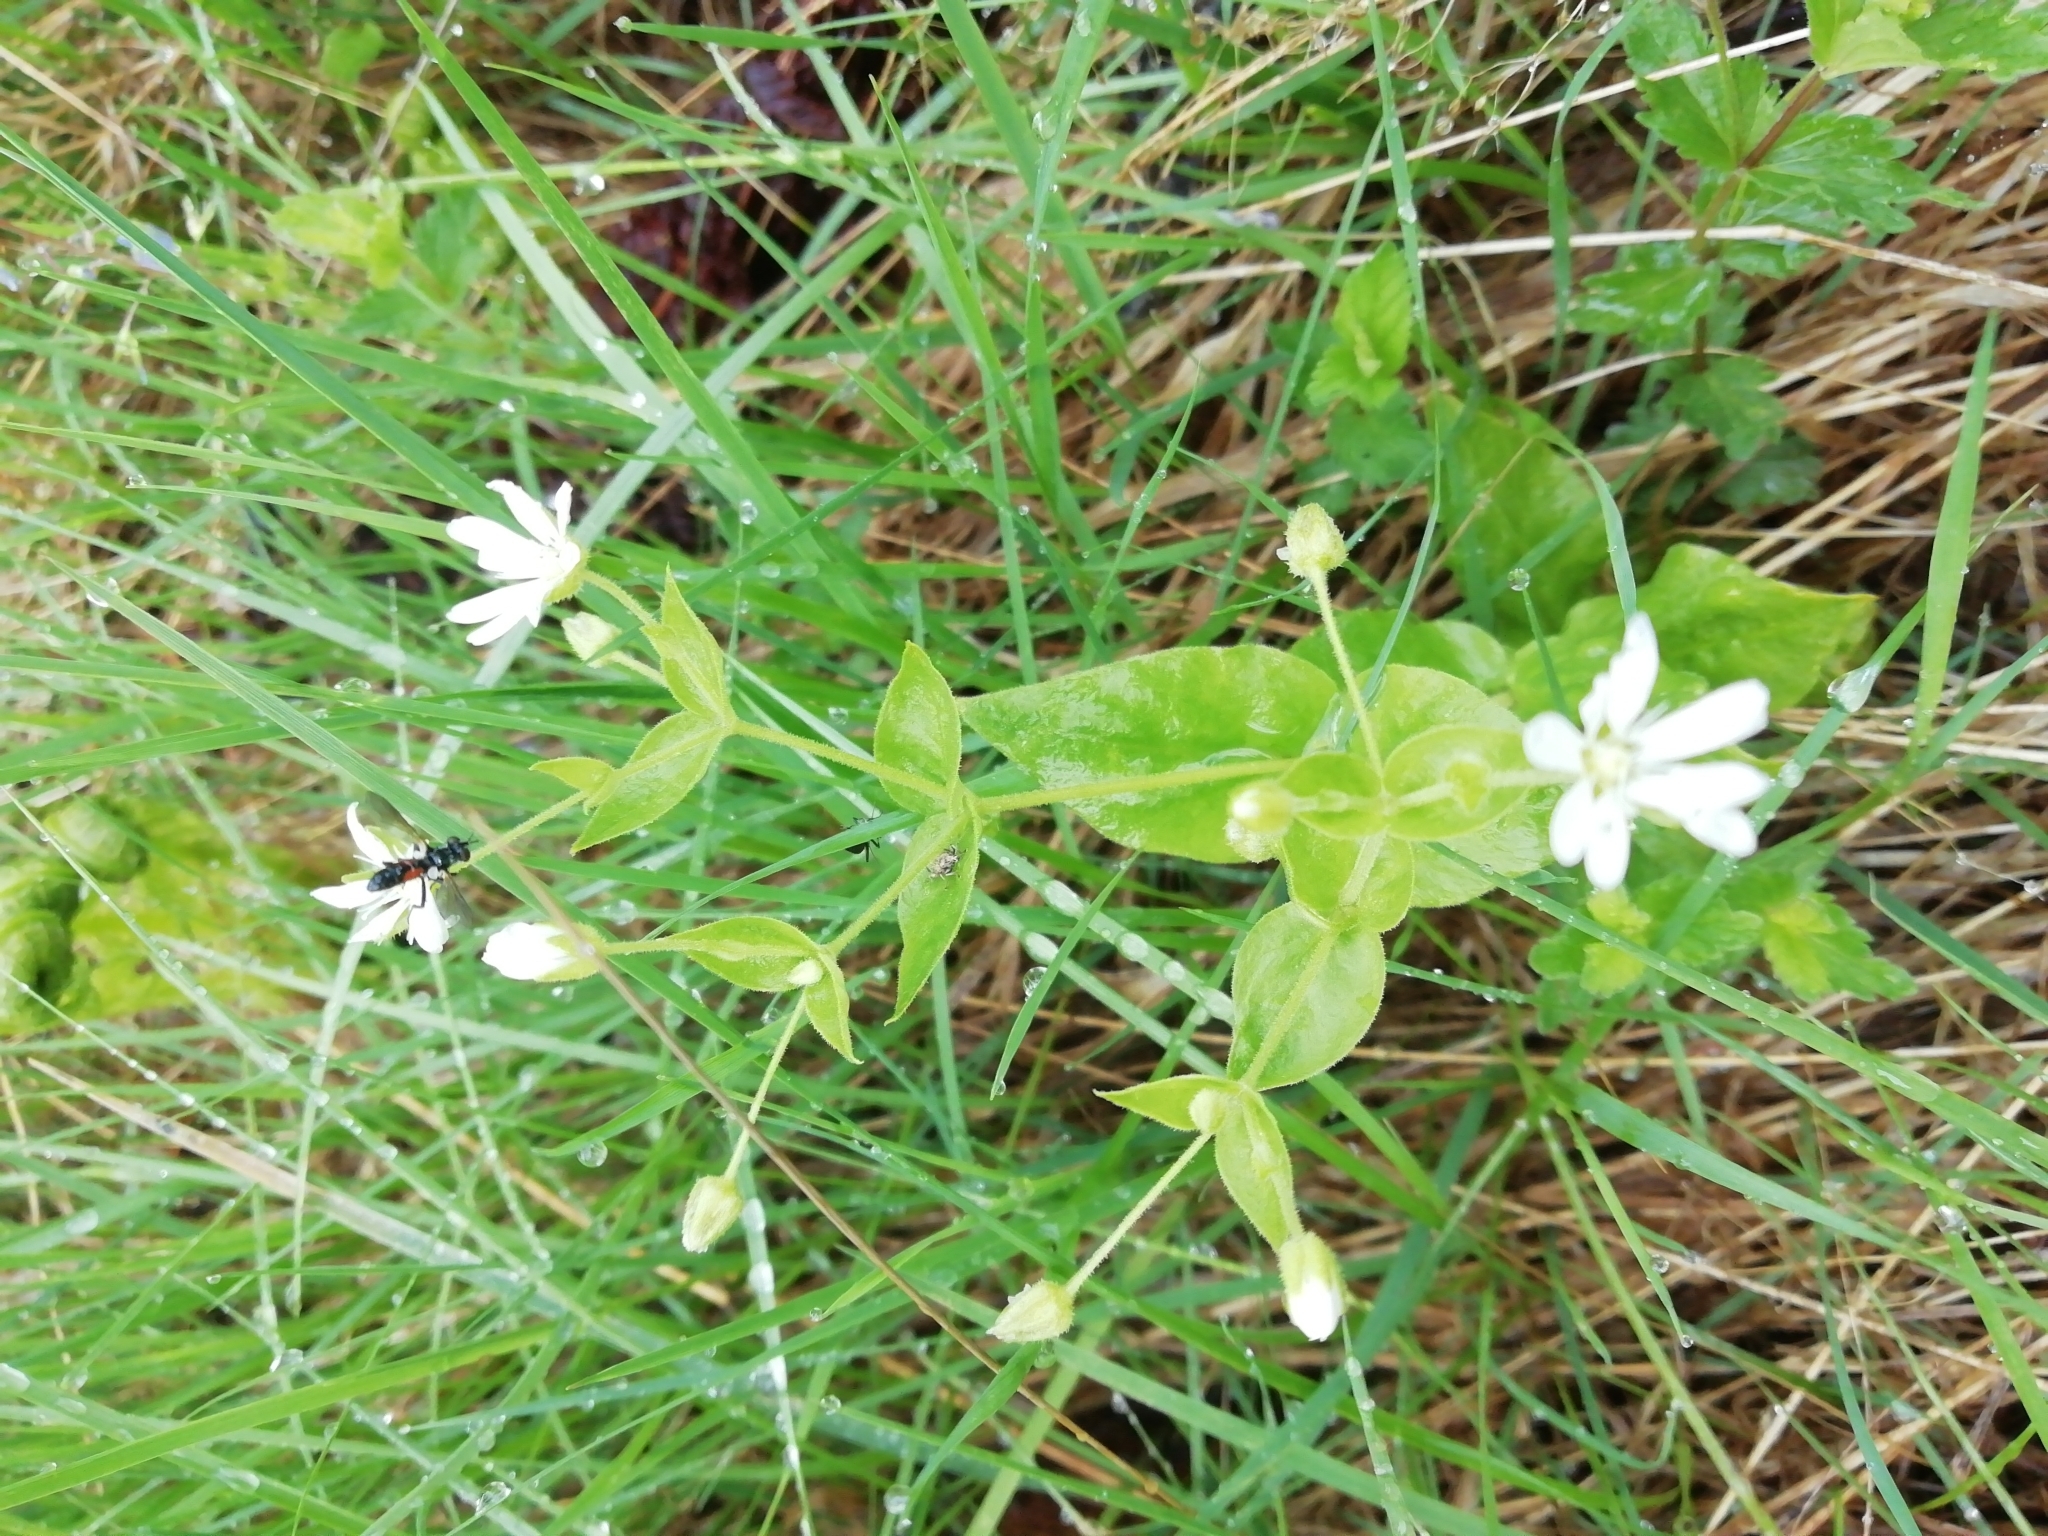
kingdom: Plantae
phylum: Tracheophyta
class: Magnoliopsida
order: Caryophyllales
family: Caryophyllaceae
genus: Stellaria
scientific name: Stellaria bungeana
